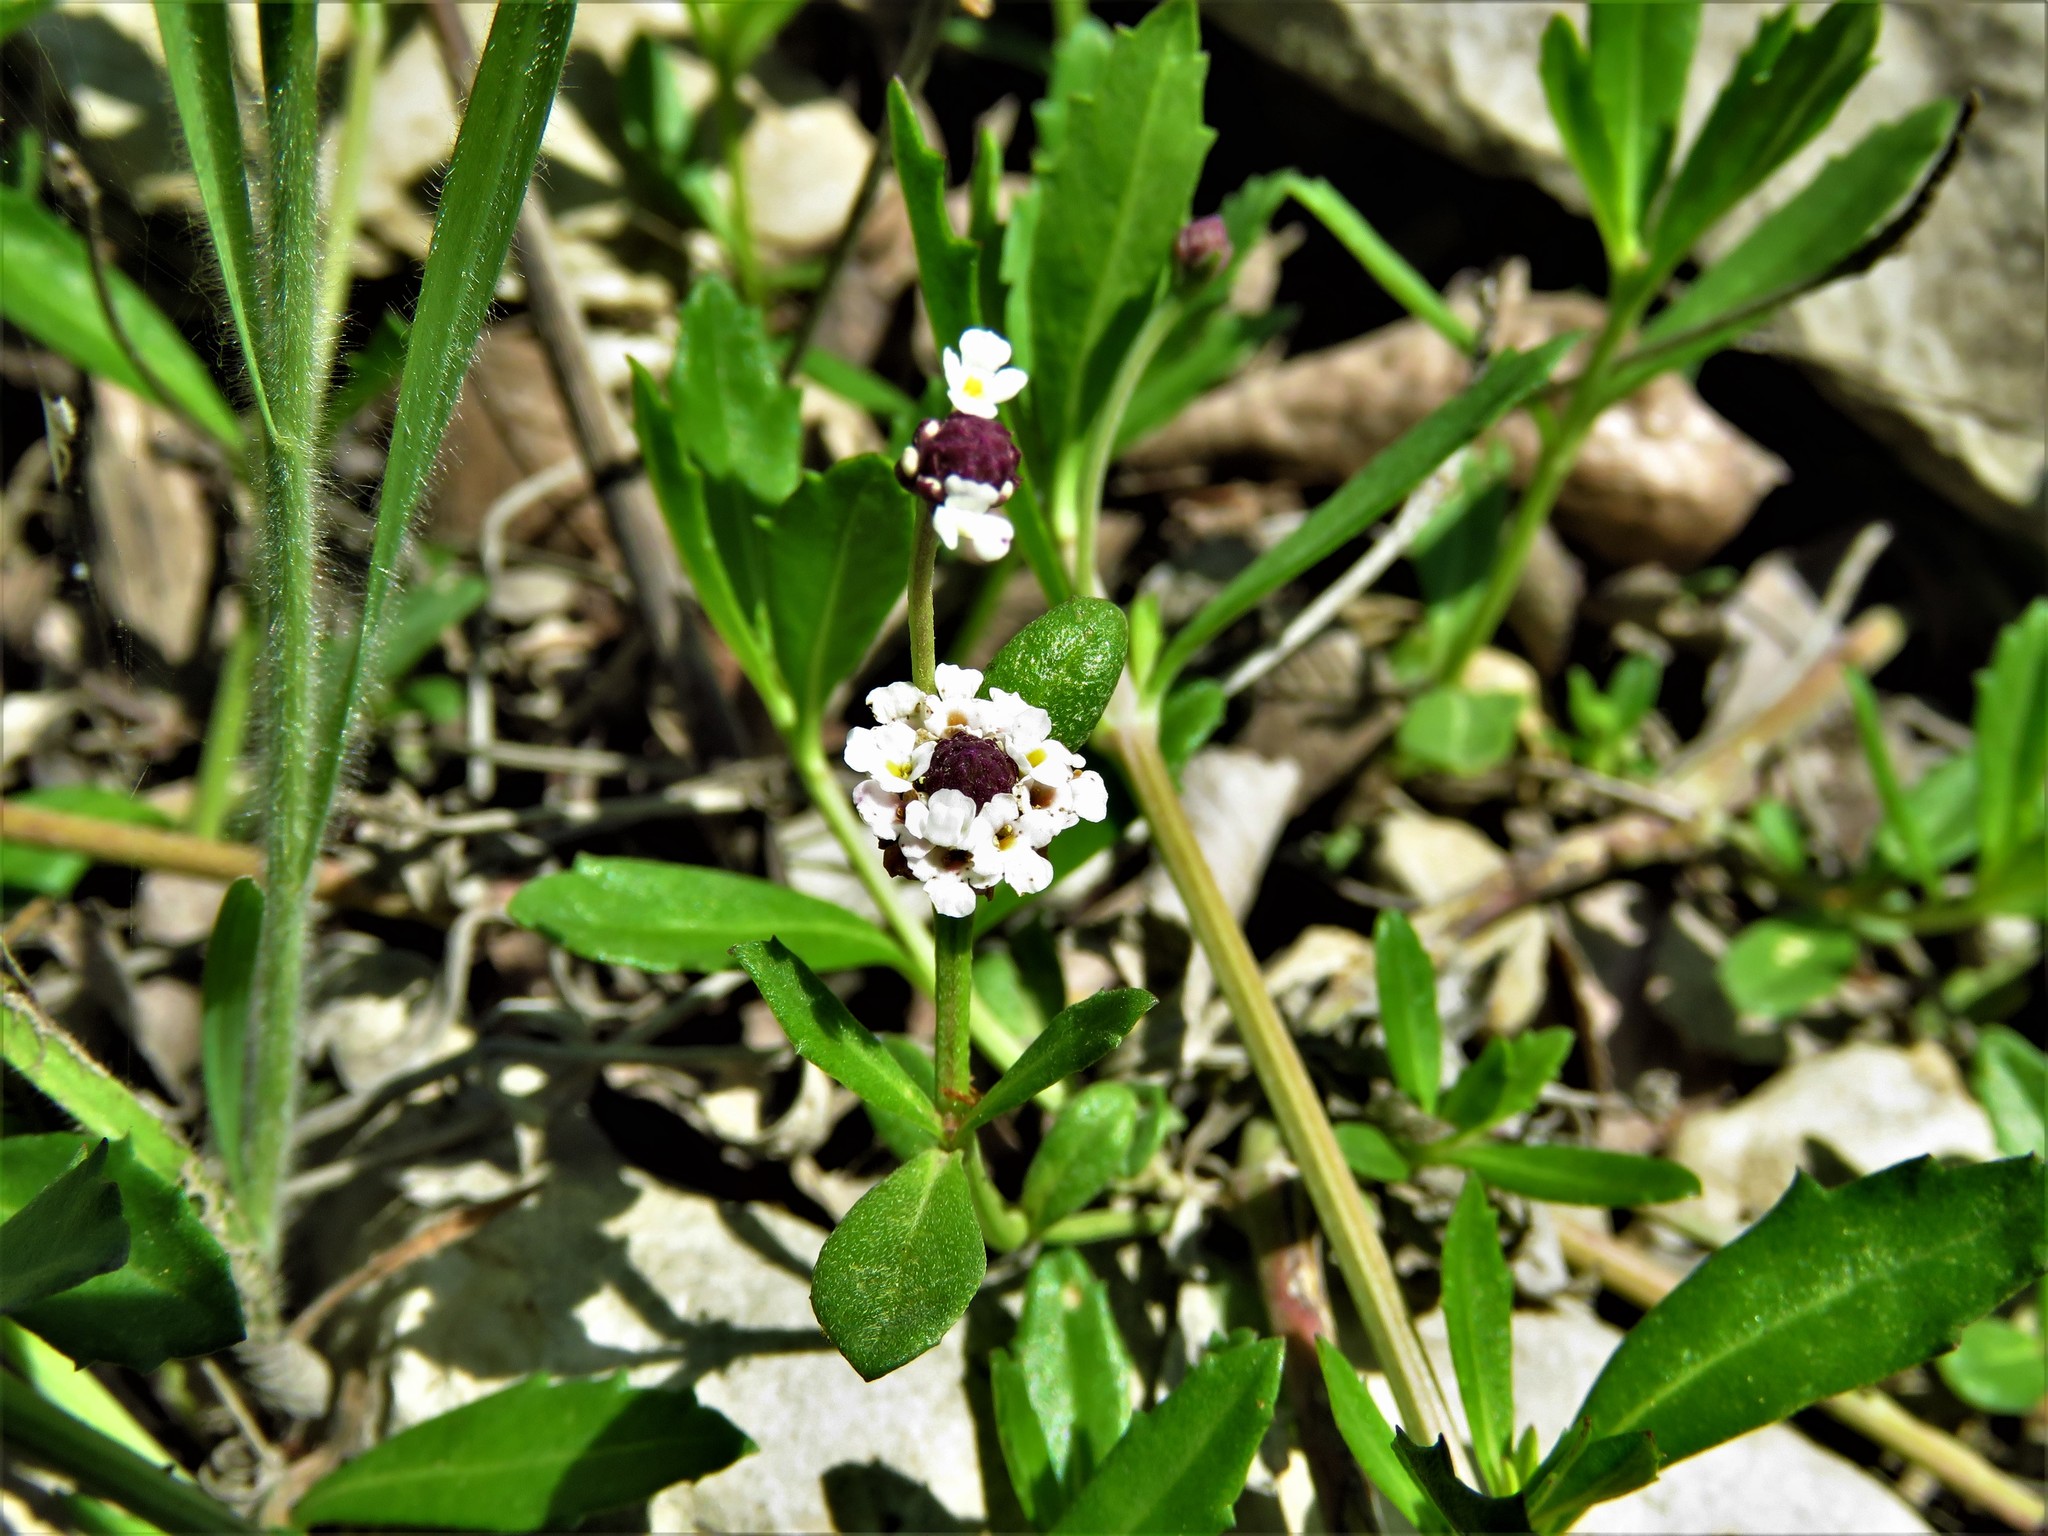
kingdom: Plantae
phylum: Tracheophyta
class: Magnoliopsida
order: Lamiales
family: Verbenaceae
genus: Phyla
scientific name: Phyla nodiflora
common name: Frogfruit
